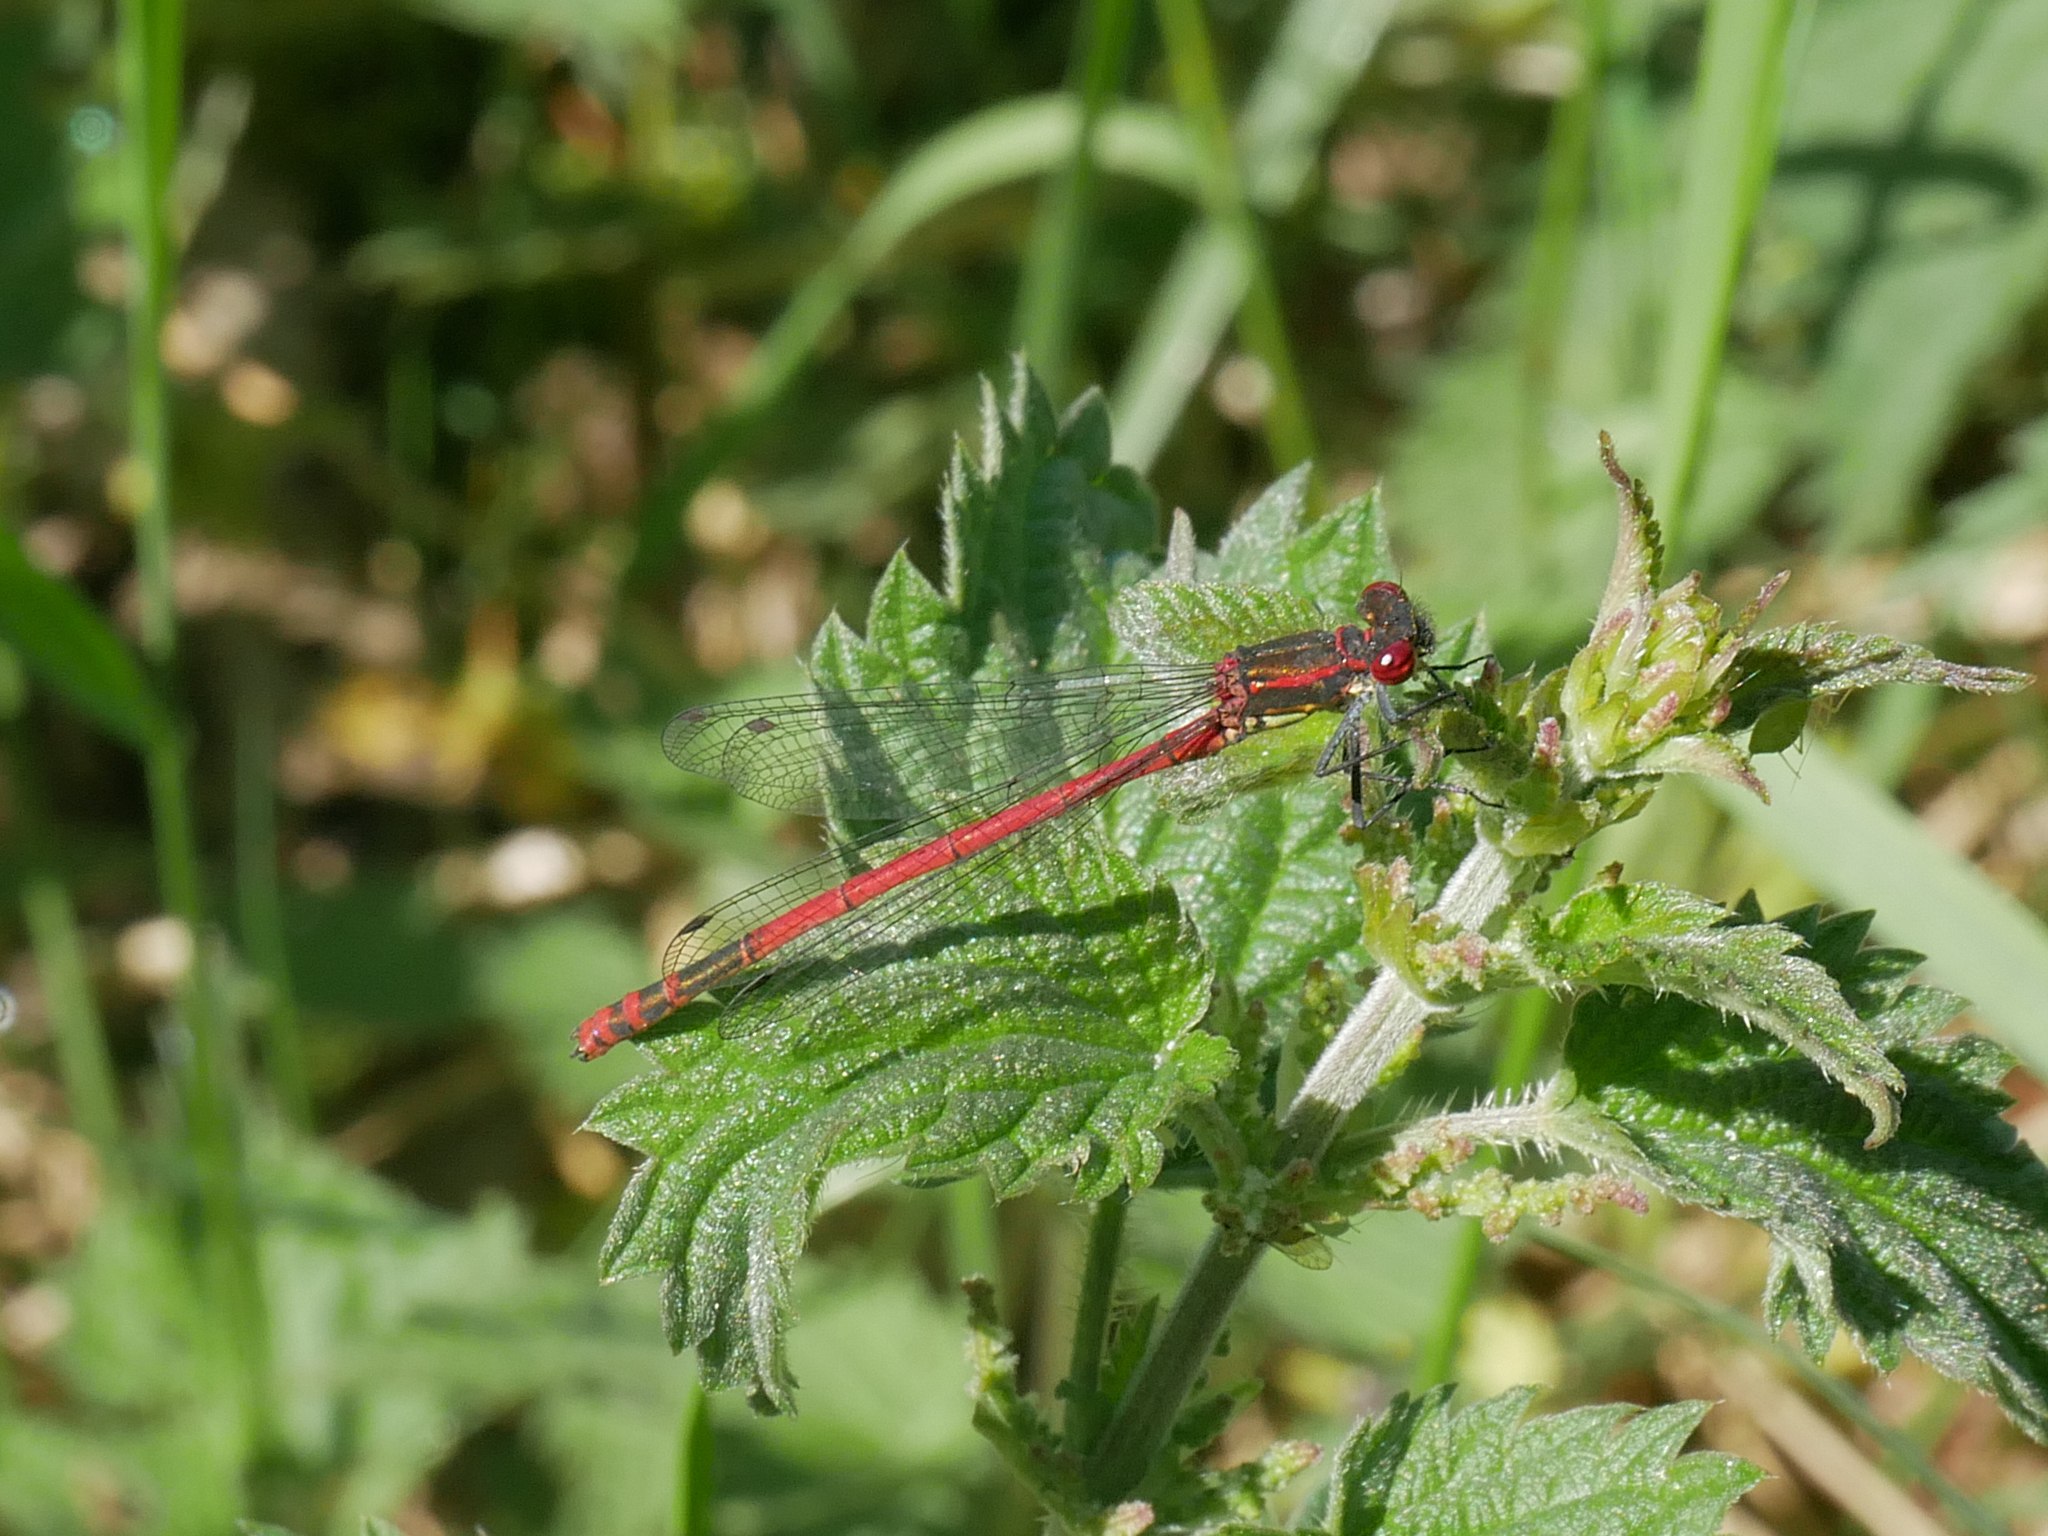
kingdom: Animalia
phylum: Arthropoda
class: Insecta
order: Odonata
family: Coenagrionidae
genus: Pyrrhosoma
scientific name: Pyrrhosoma nymphula
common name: Large red damsel
